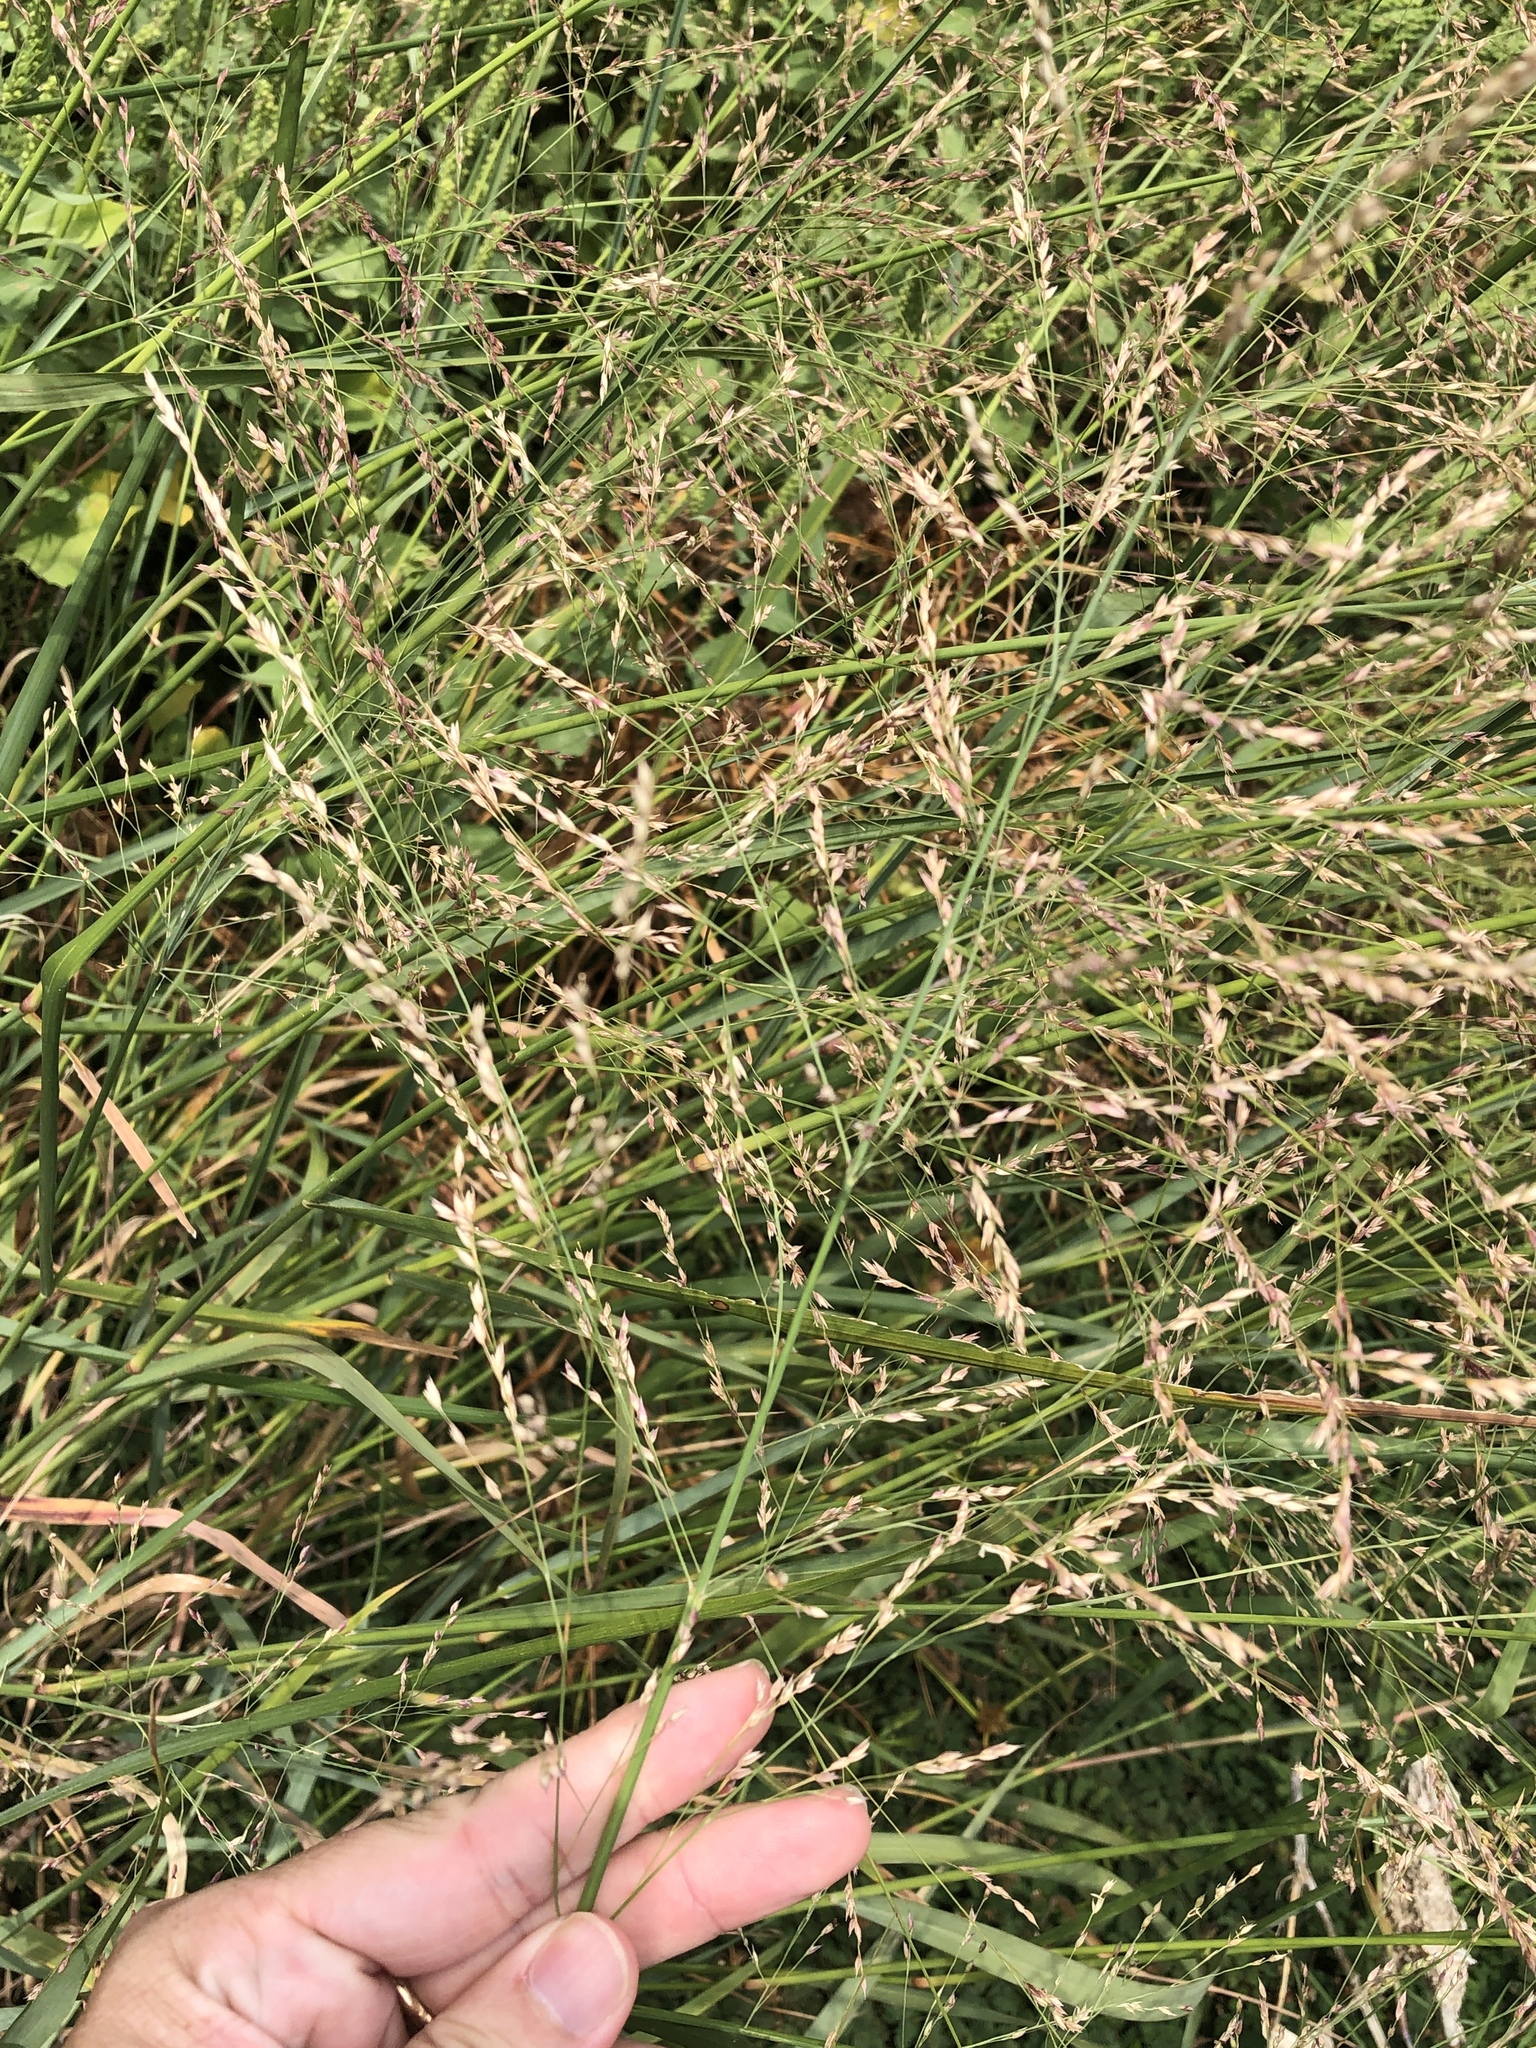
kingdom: Plantae
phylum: Tracheophyta
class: Liliopsida
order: Poales
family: Poaceae
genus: Panicum
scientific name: Panicum virgatum
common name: Switchgrass
